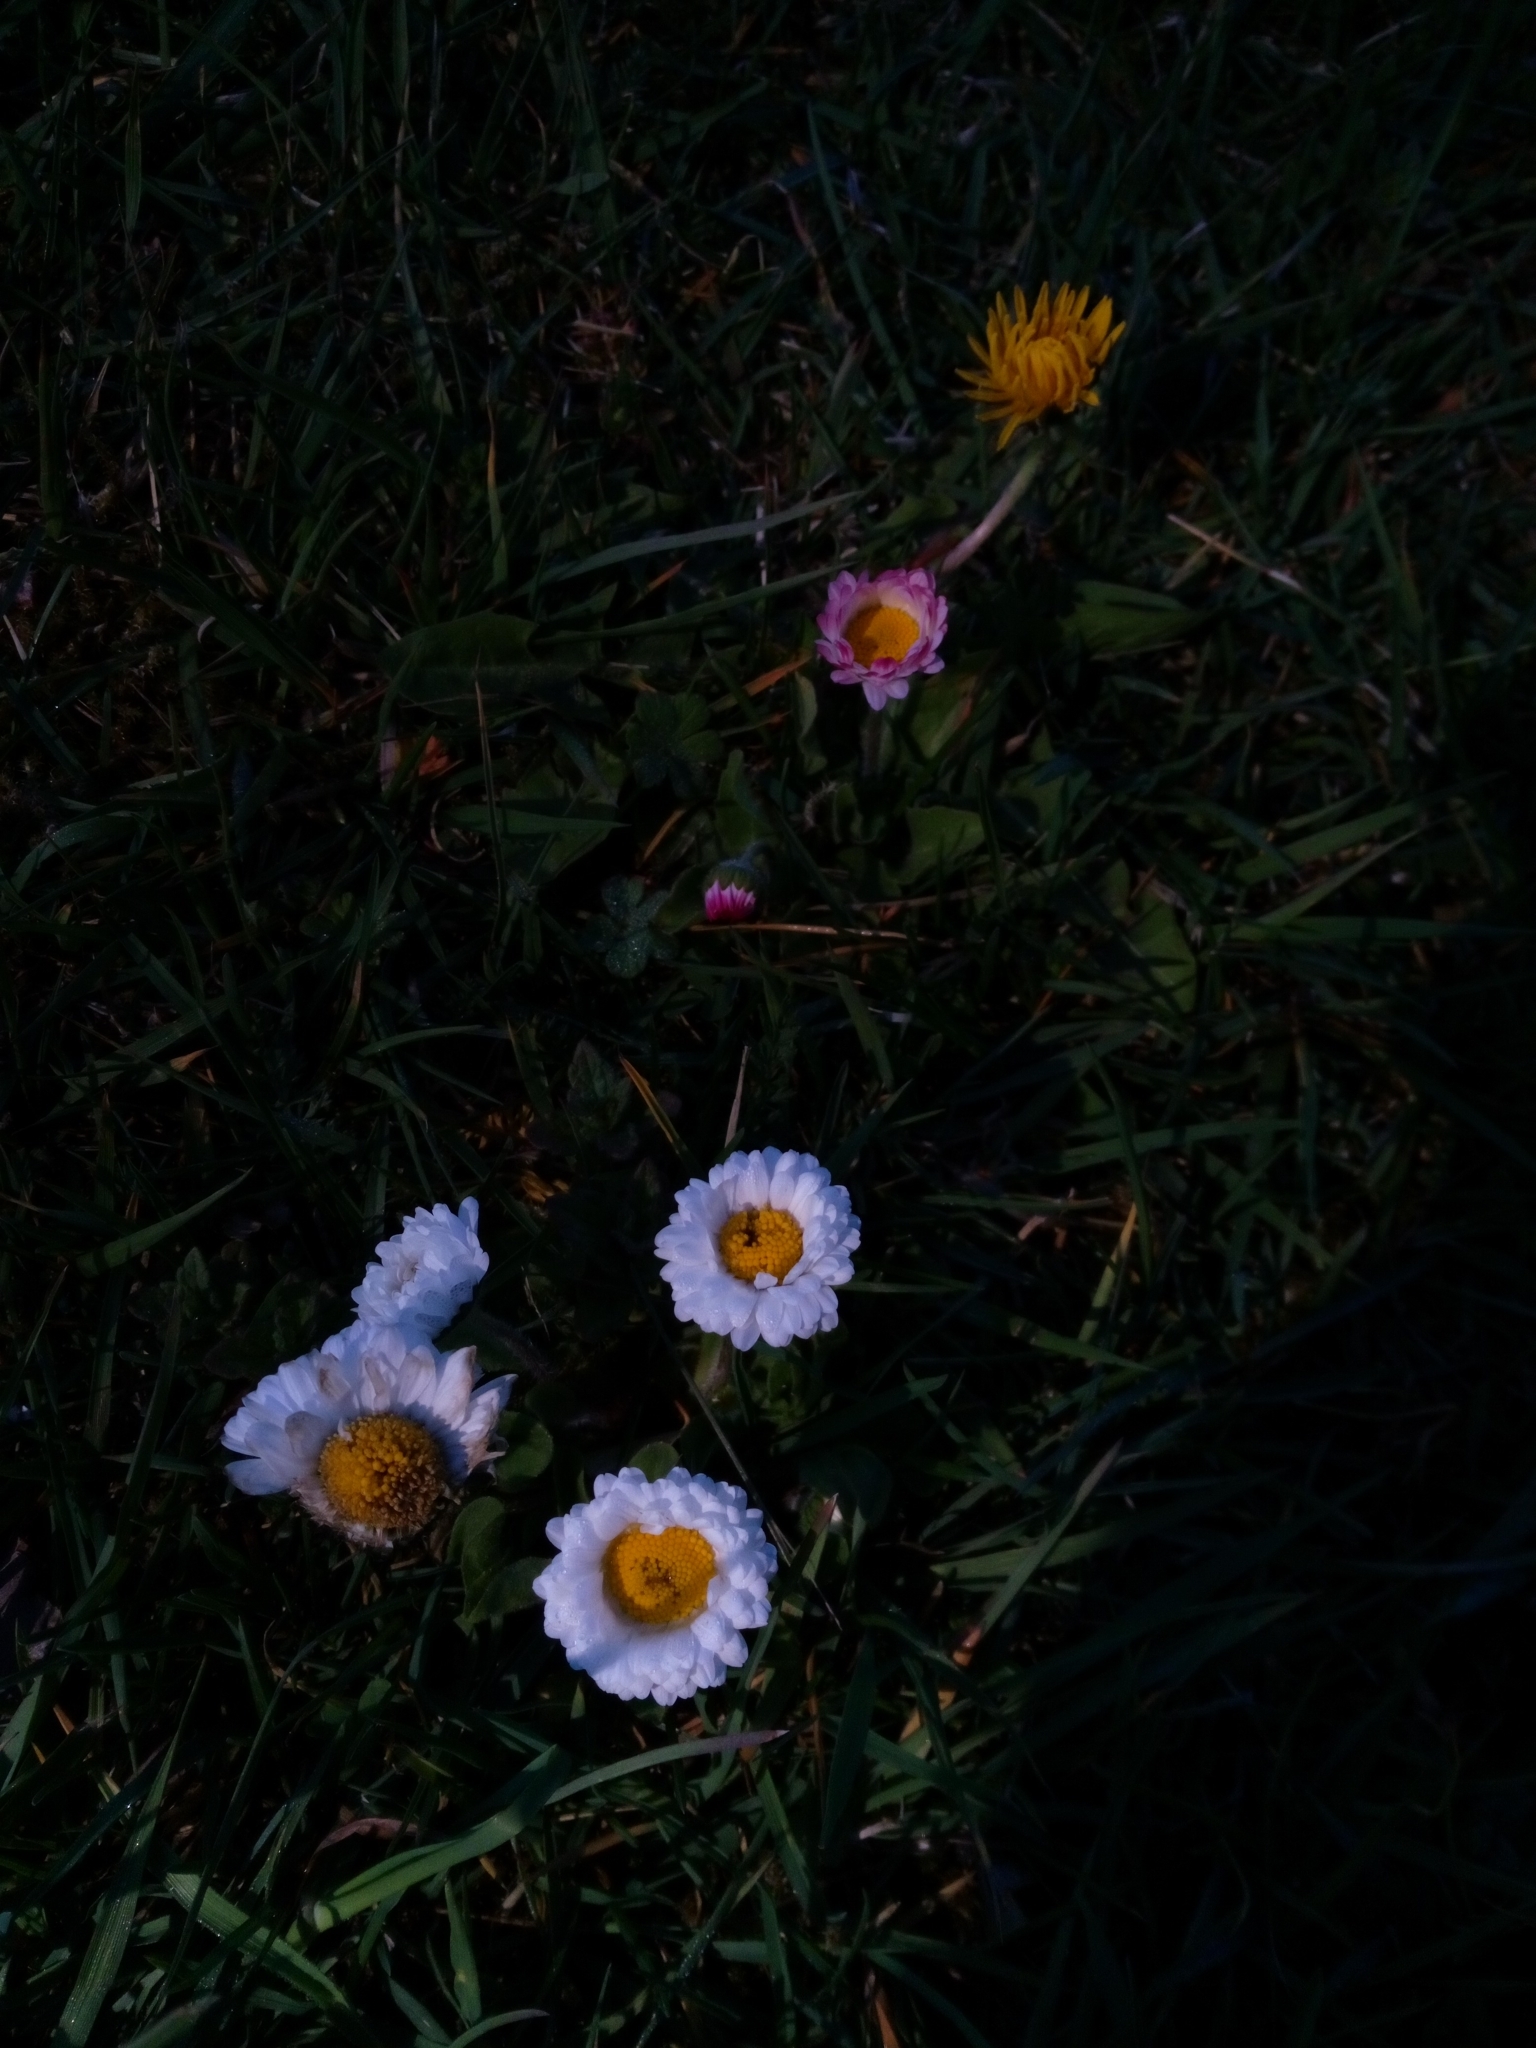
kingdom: Plantae
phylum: Tracheophyta
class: Magnoliopsida
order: Asterales
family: Asteraceae
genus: Bellis
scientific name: Bellis perennis
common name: Lawndaisy
